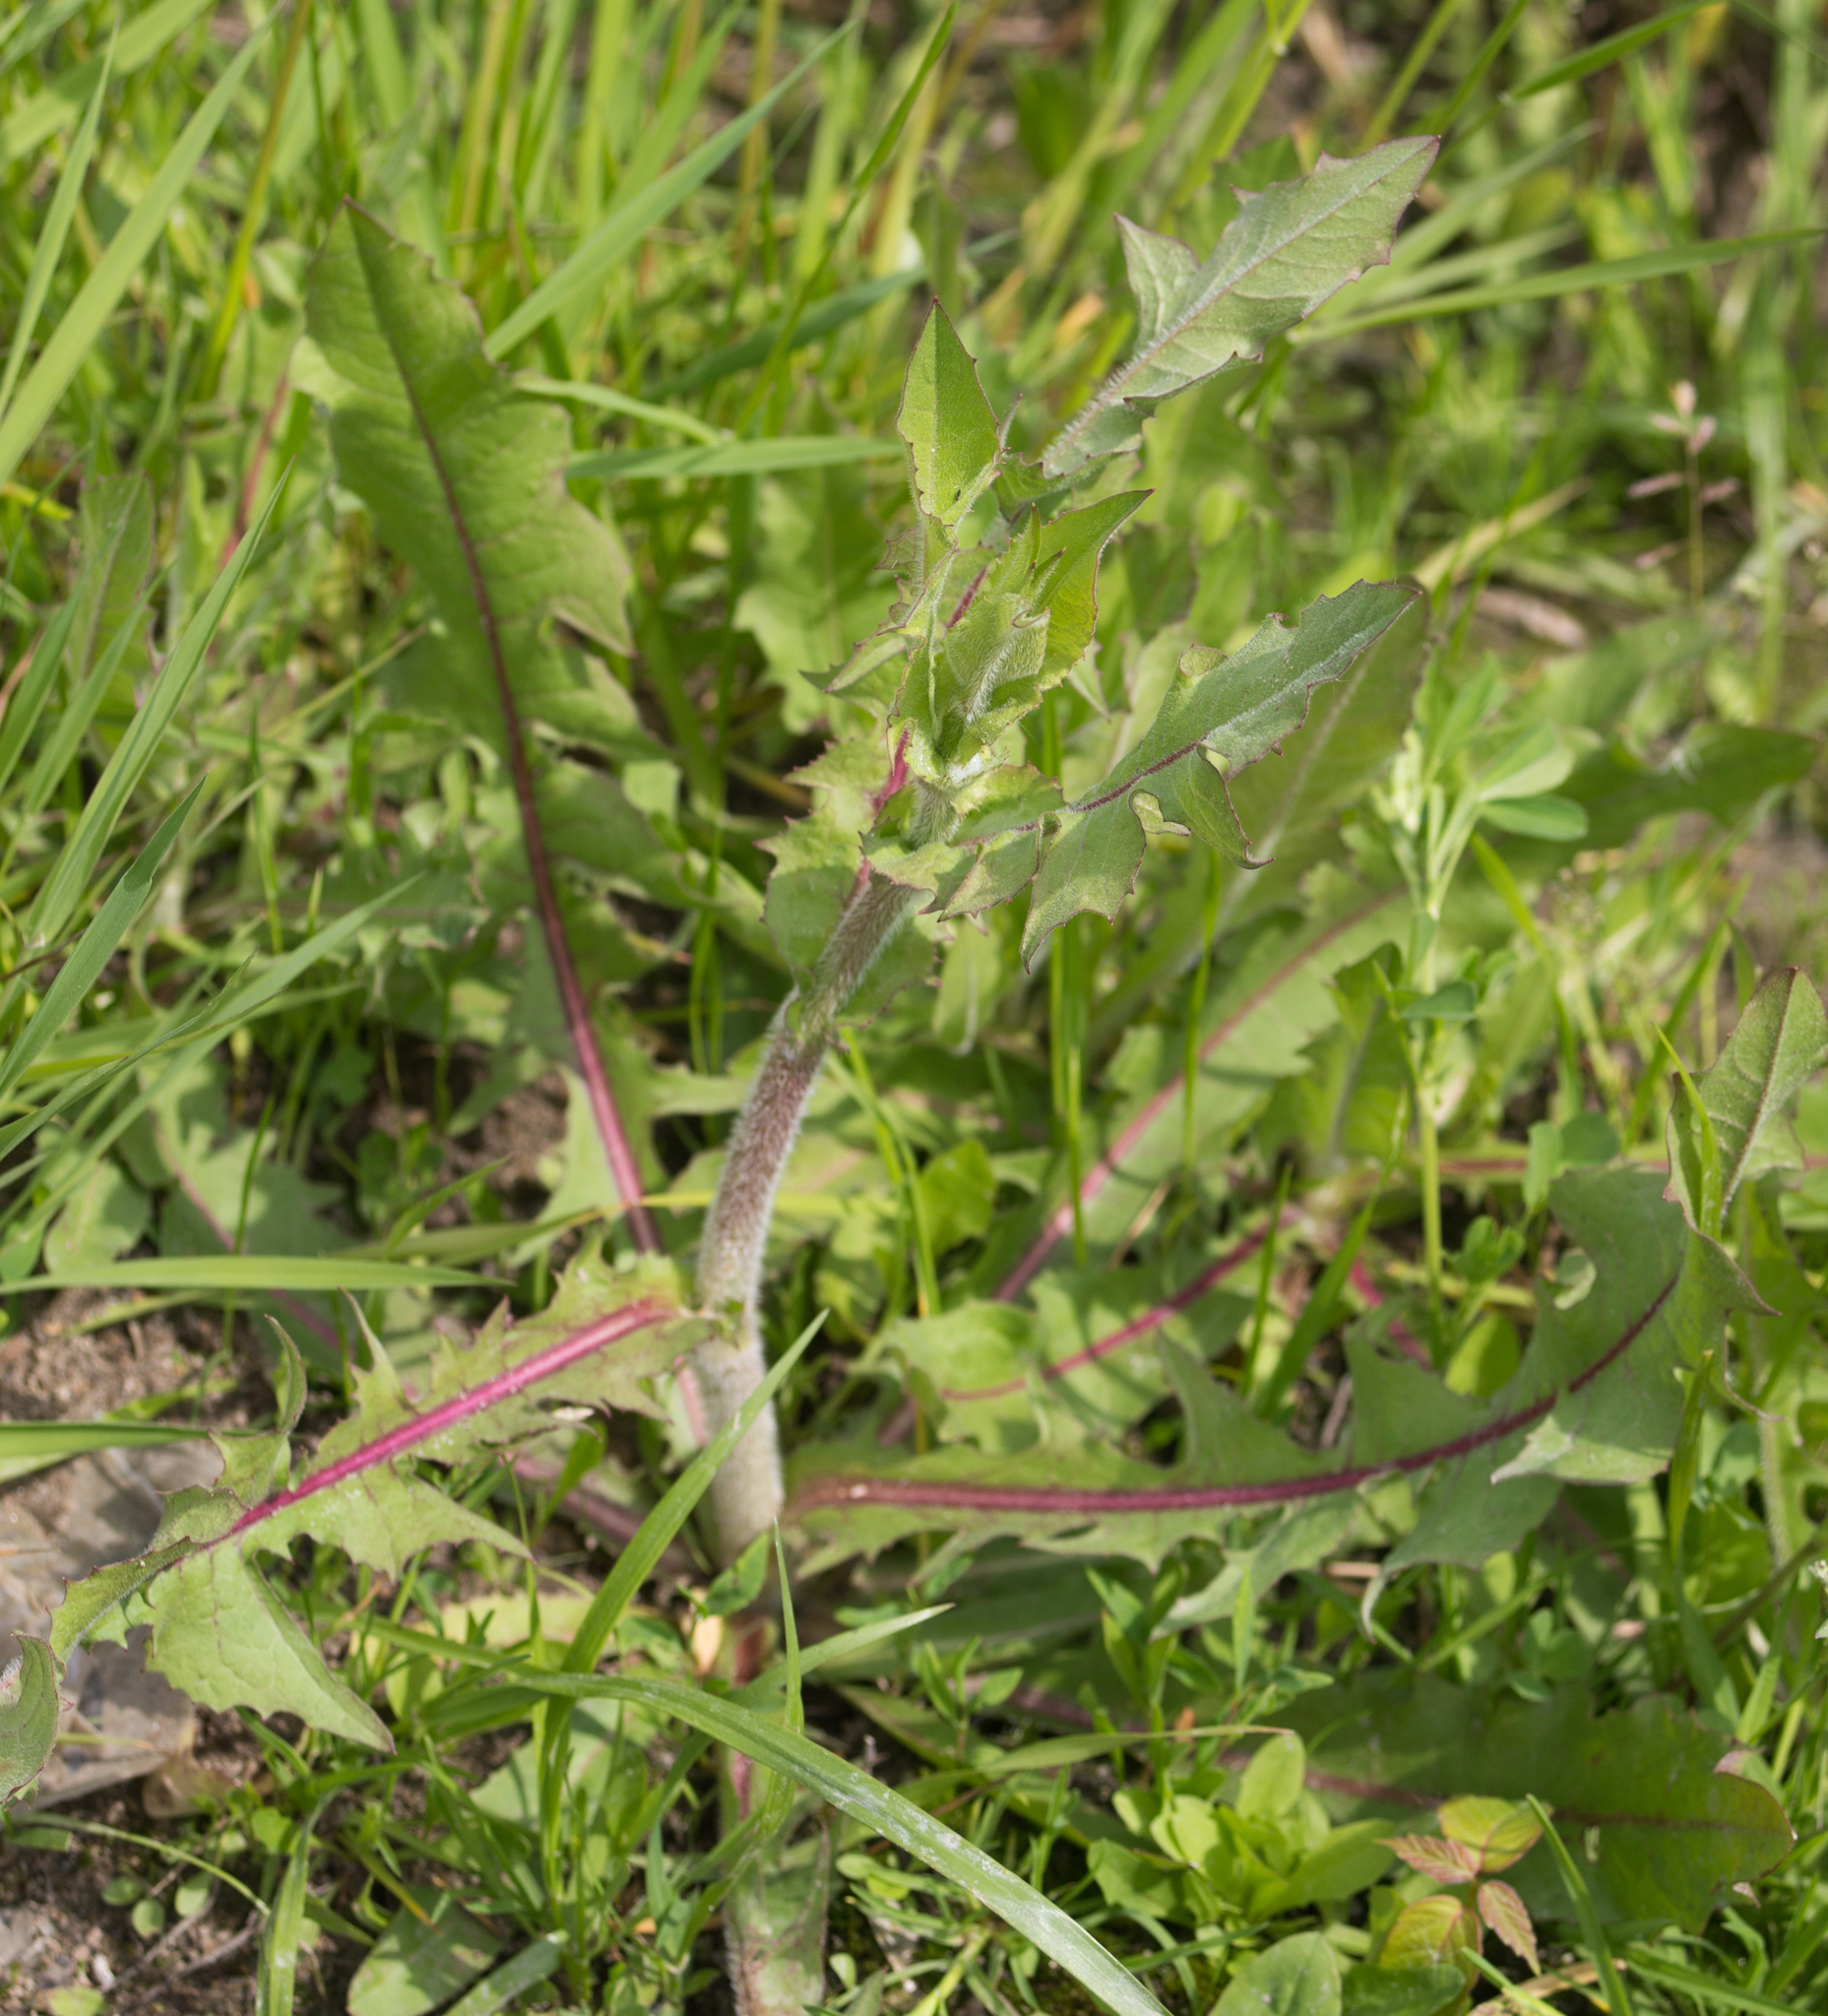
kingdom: Plantae
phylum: Tracheophyta
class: Magnoliopsida
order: Asterales
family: Asteraceae
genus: Cichorium
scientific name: Cichorium intybus
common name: Chicory
